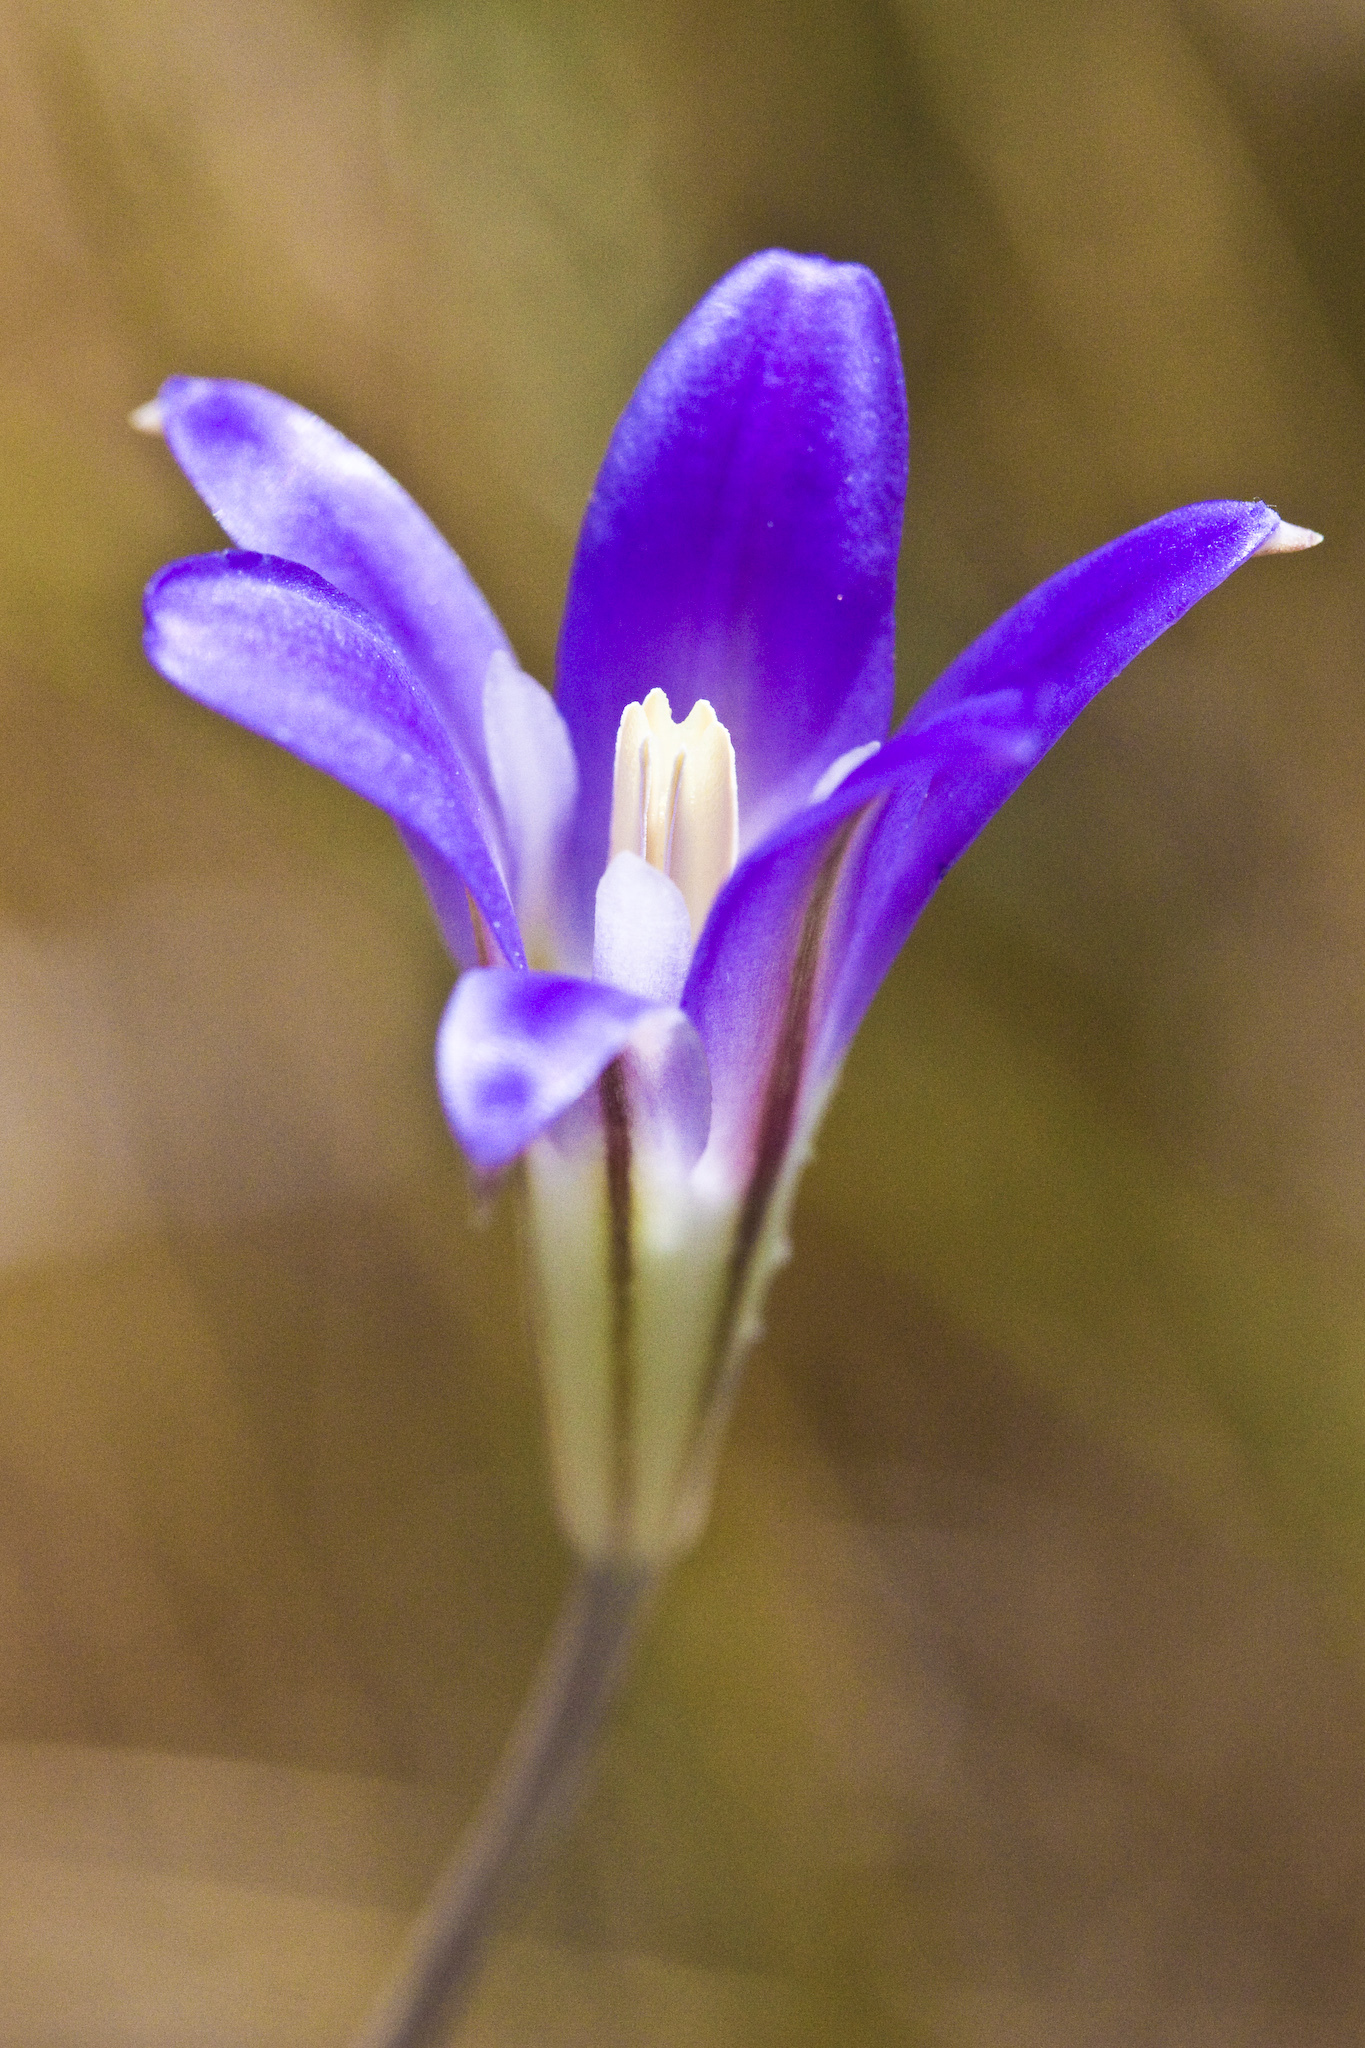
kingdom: Plantae
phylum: Tracheophyta
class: Liliopsida
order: Asparagales
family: Asparagaceae
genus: Brodiaea
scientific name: Brodiaea elegans
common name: Elegant cluster-lily
